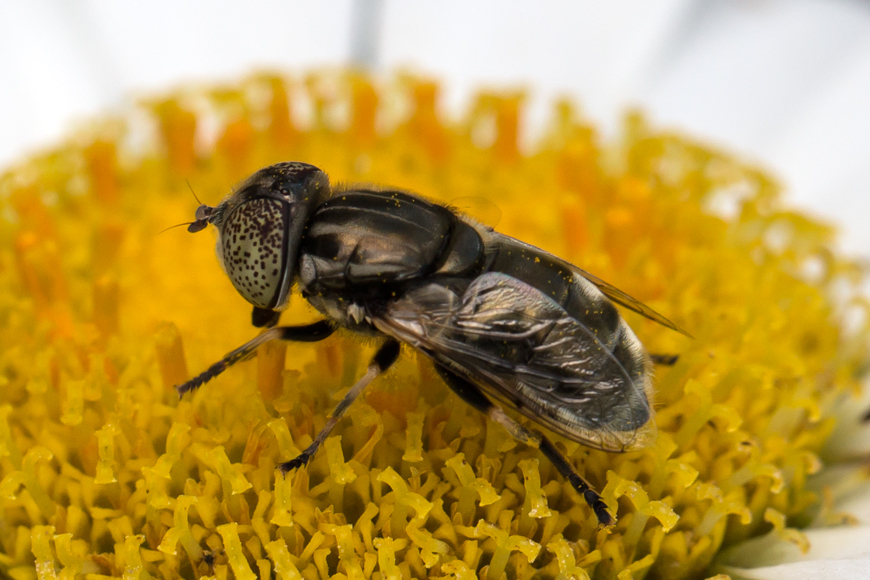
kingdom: Animalia
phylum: Arthropoda
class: Insecta
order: Diptera
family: Syrphidae
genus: Eristalinus
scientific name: Eristalinus aeneus
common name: Syrphid fly
